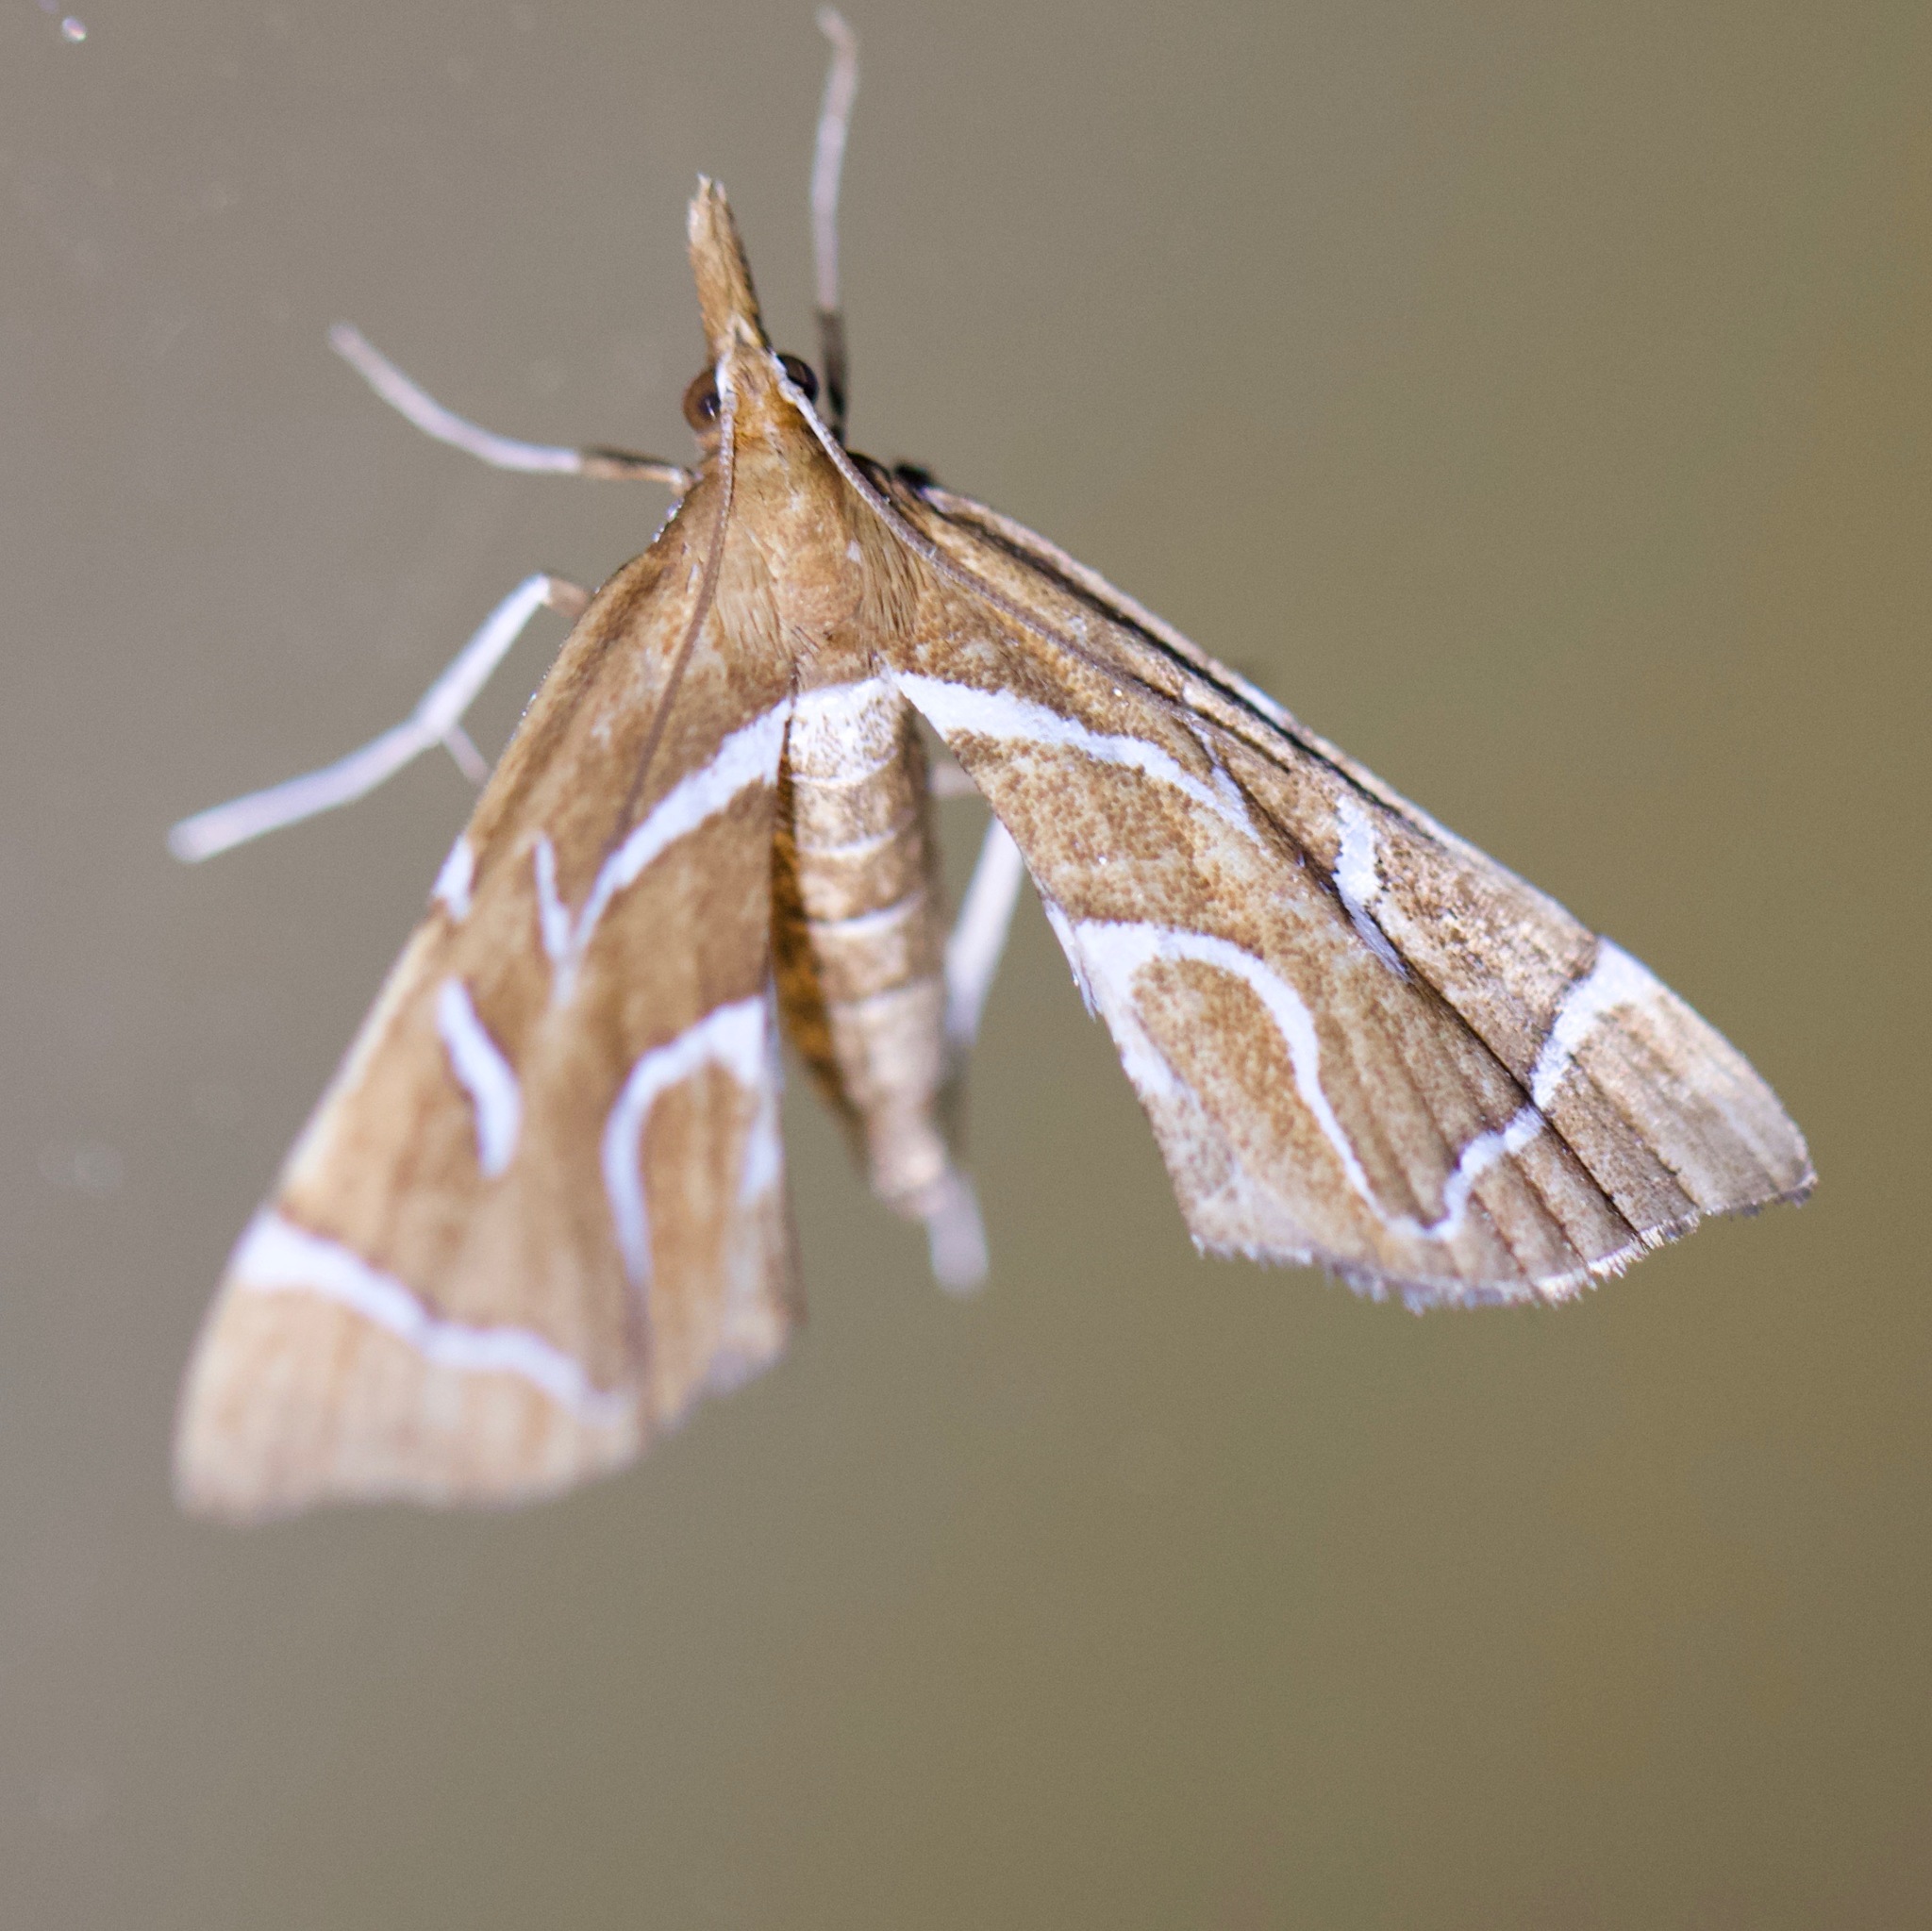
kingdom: Animalia
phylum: Arthropoda
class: Insecta
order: Lepidoptera
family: Pyralidae
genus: Panotima
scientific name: Panotima angularis
